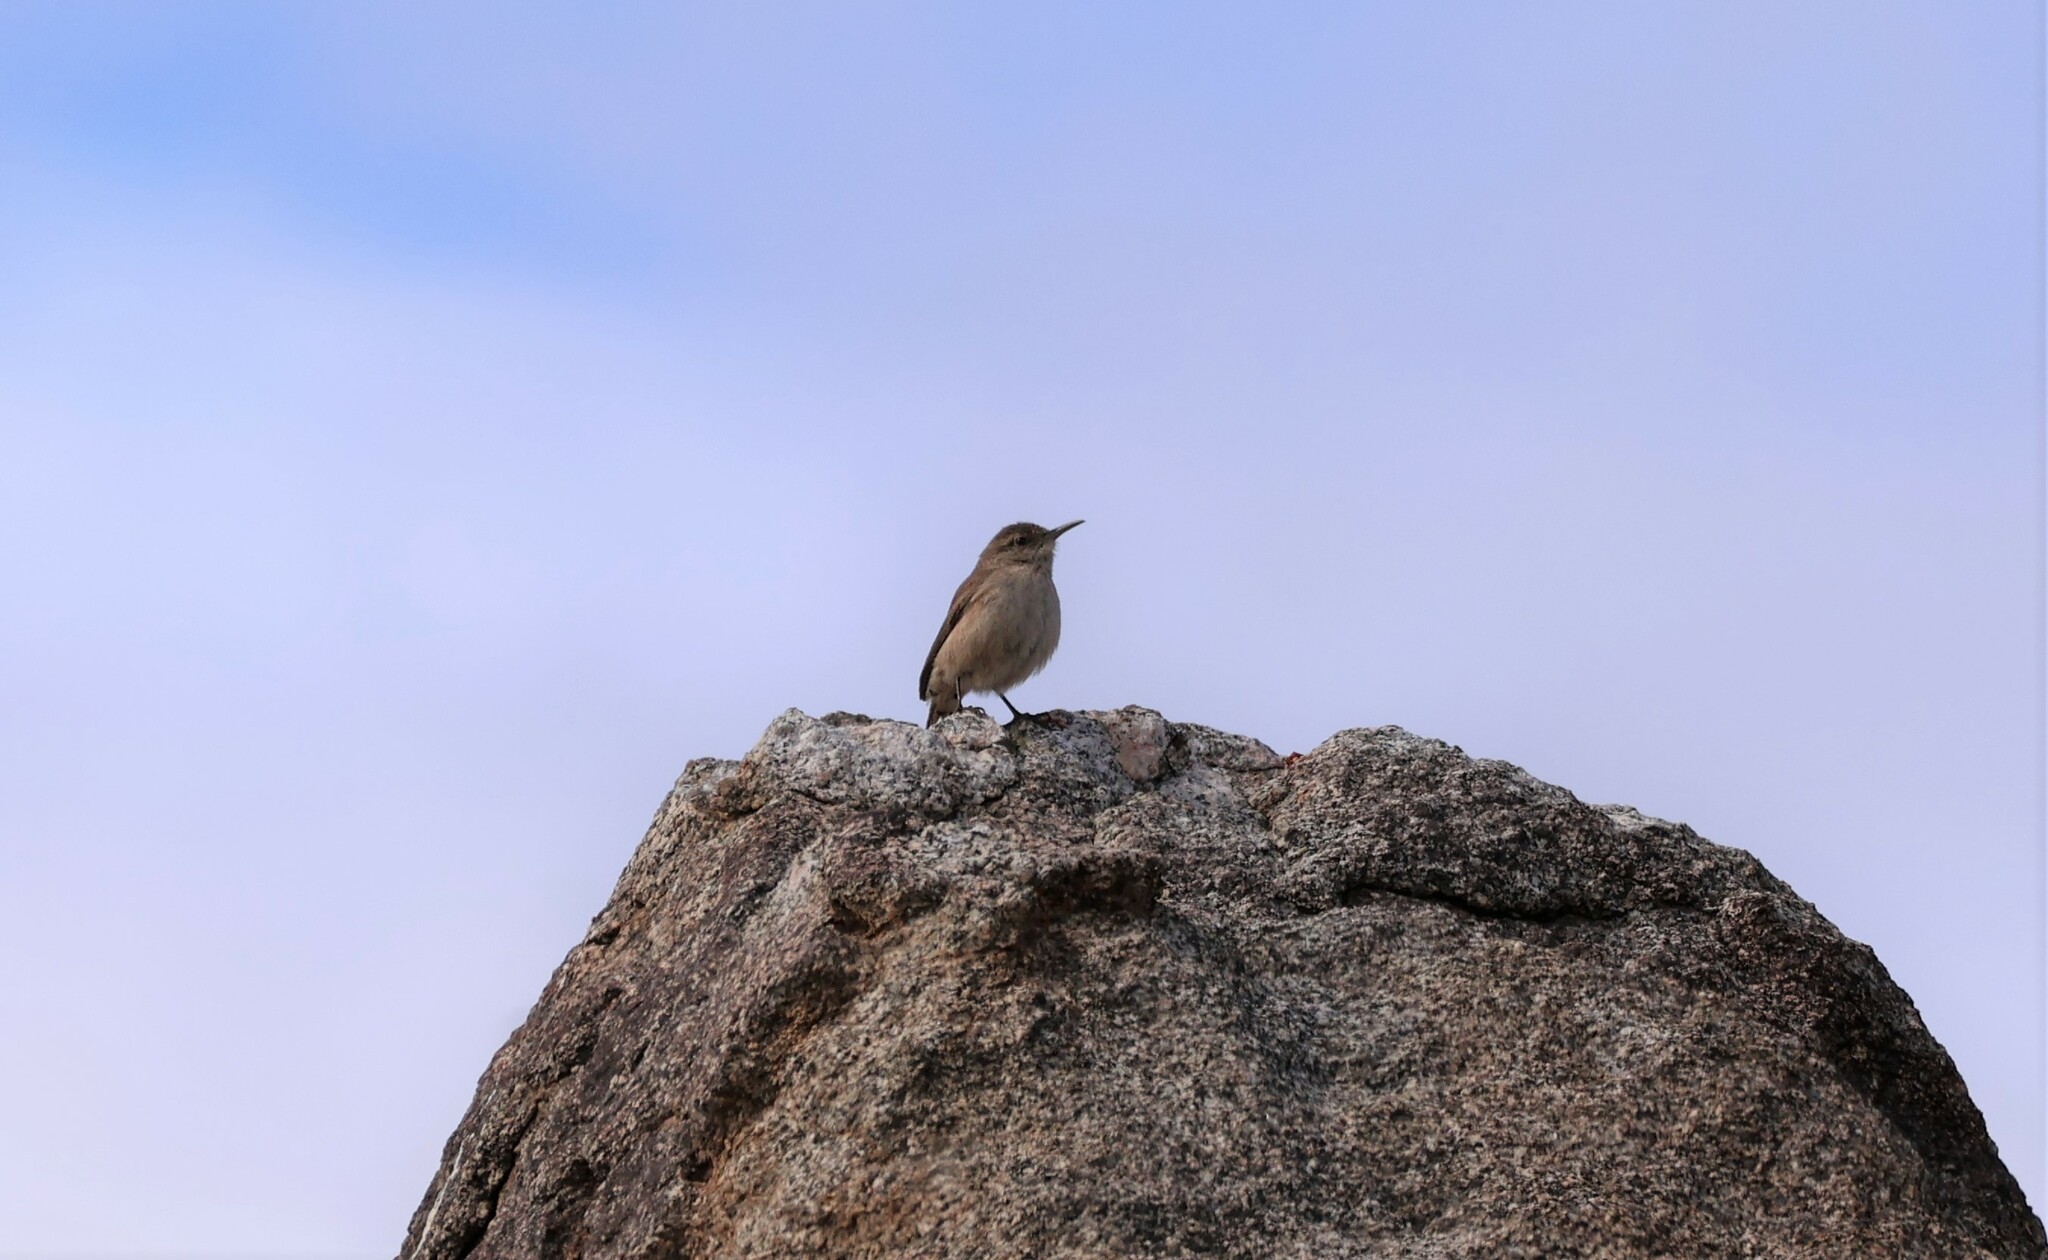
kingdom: Animalia
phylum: Chordata
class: Aves
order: Passeriformes
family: Troglodytidae
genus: Salpinctes
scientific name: Salpinctes obsoletus
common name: Rock wren
